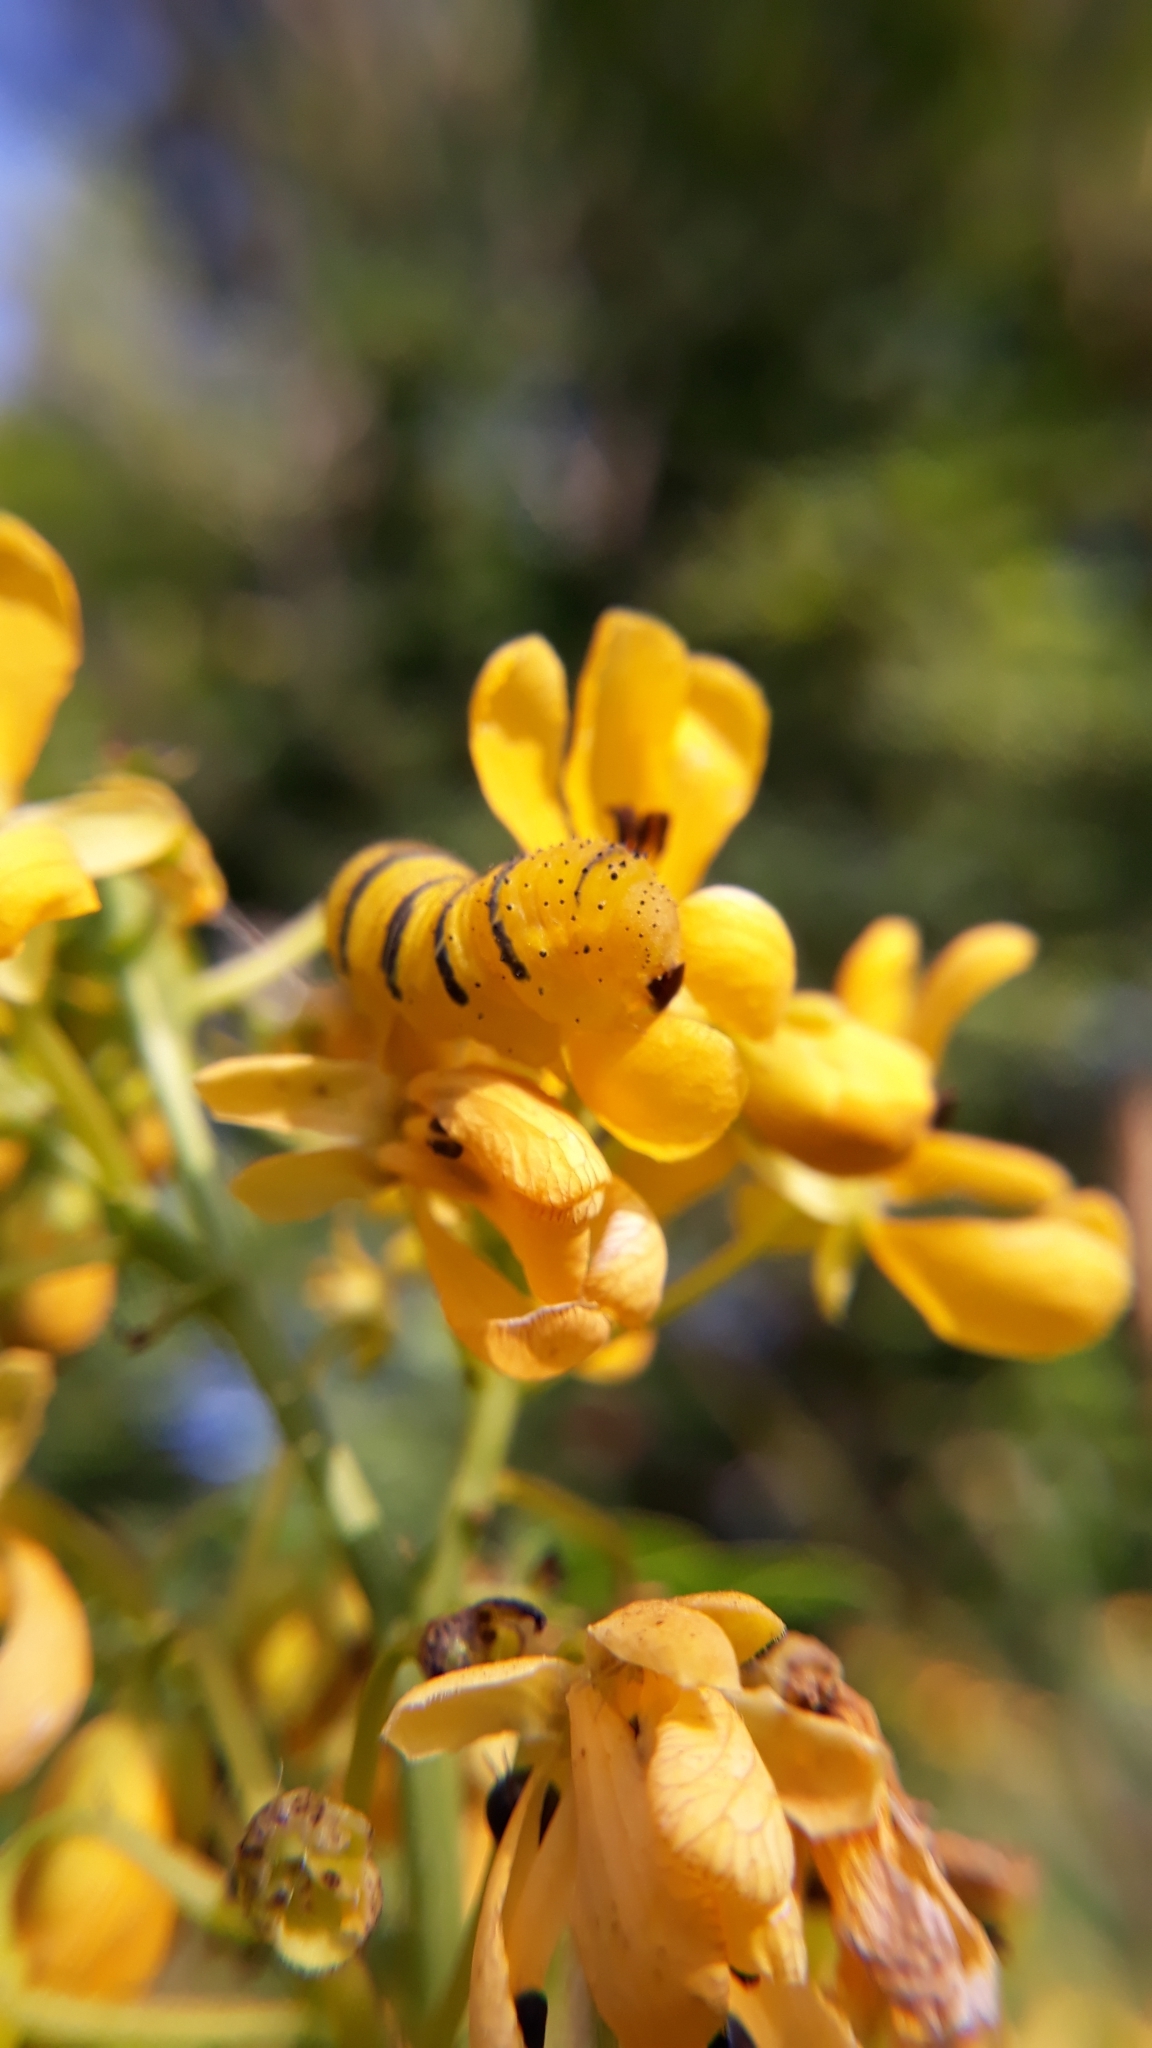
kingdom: Animalia
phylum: Arthropoda
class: Insecta
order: Lepidoptera
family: Pieridae
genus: Phoebis
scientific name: Phoebis sennae
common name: Cloudless sulphur
